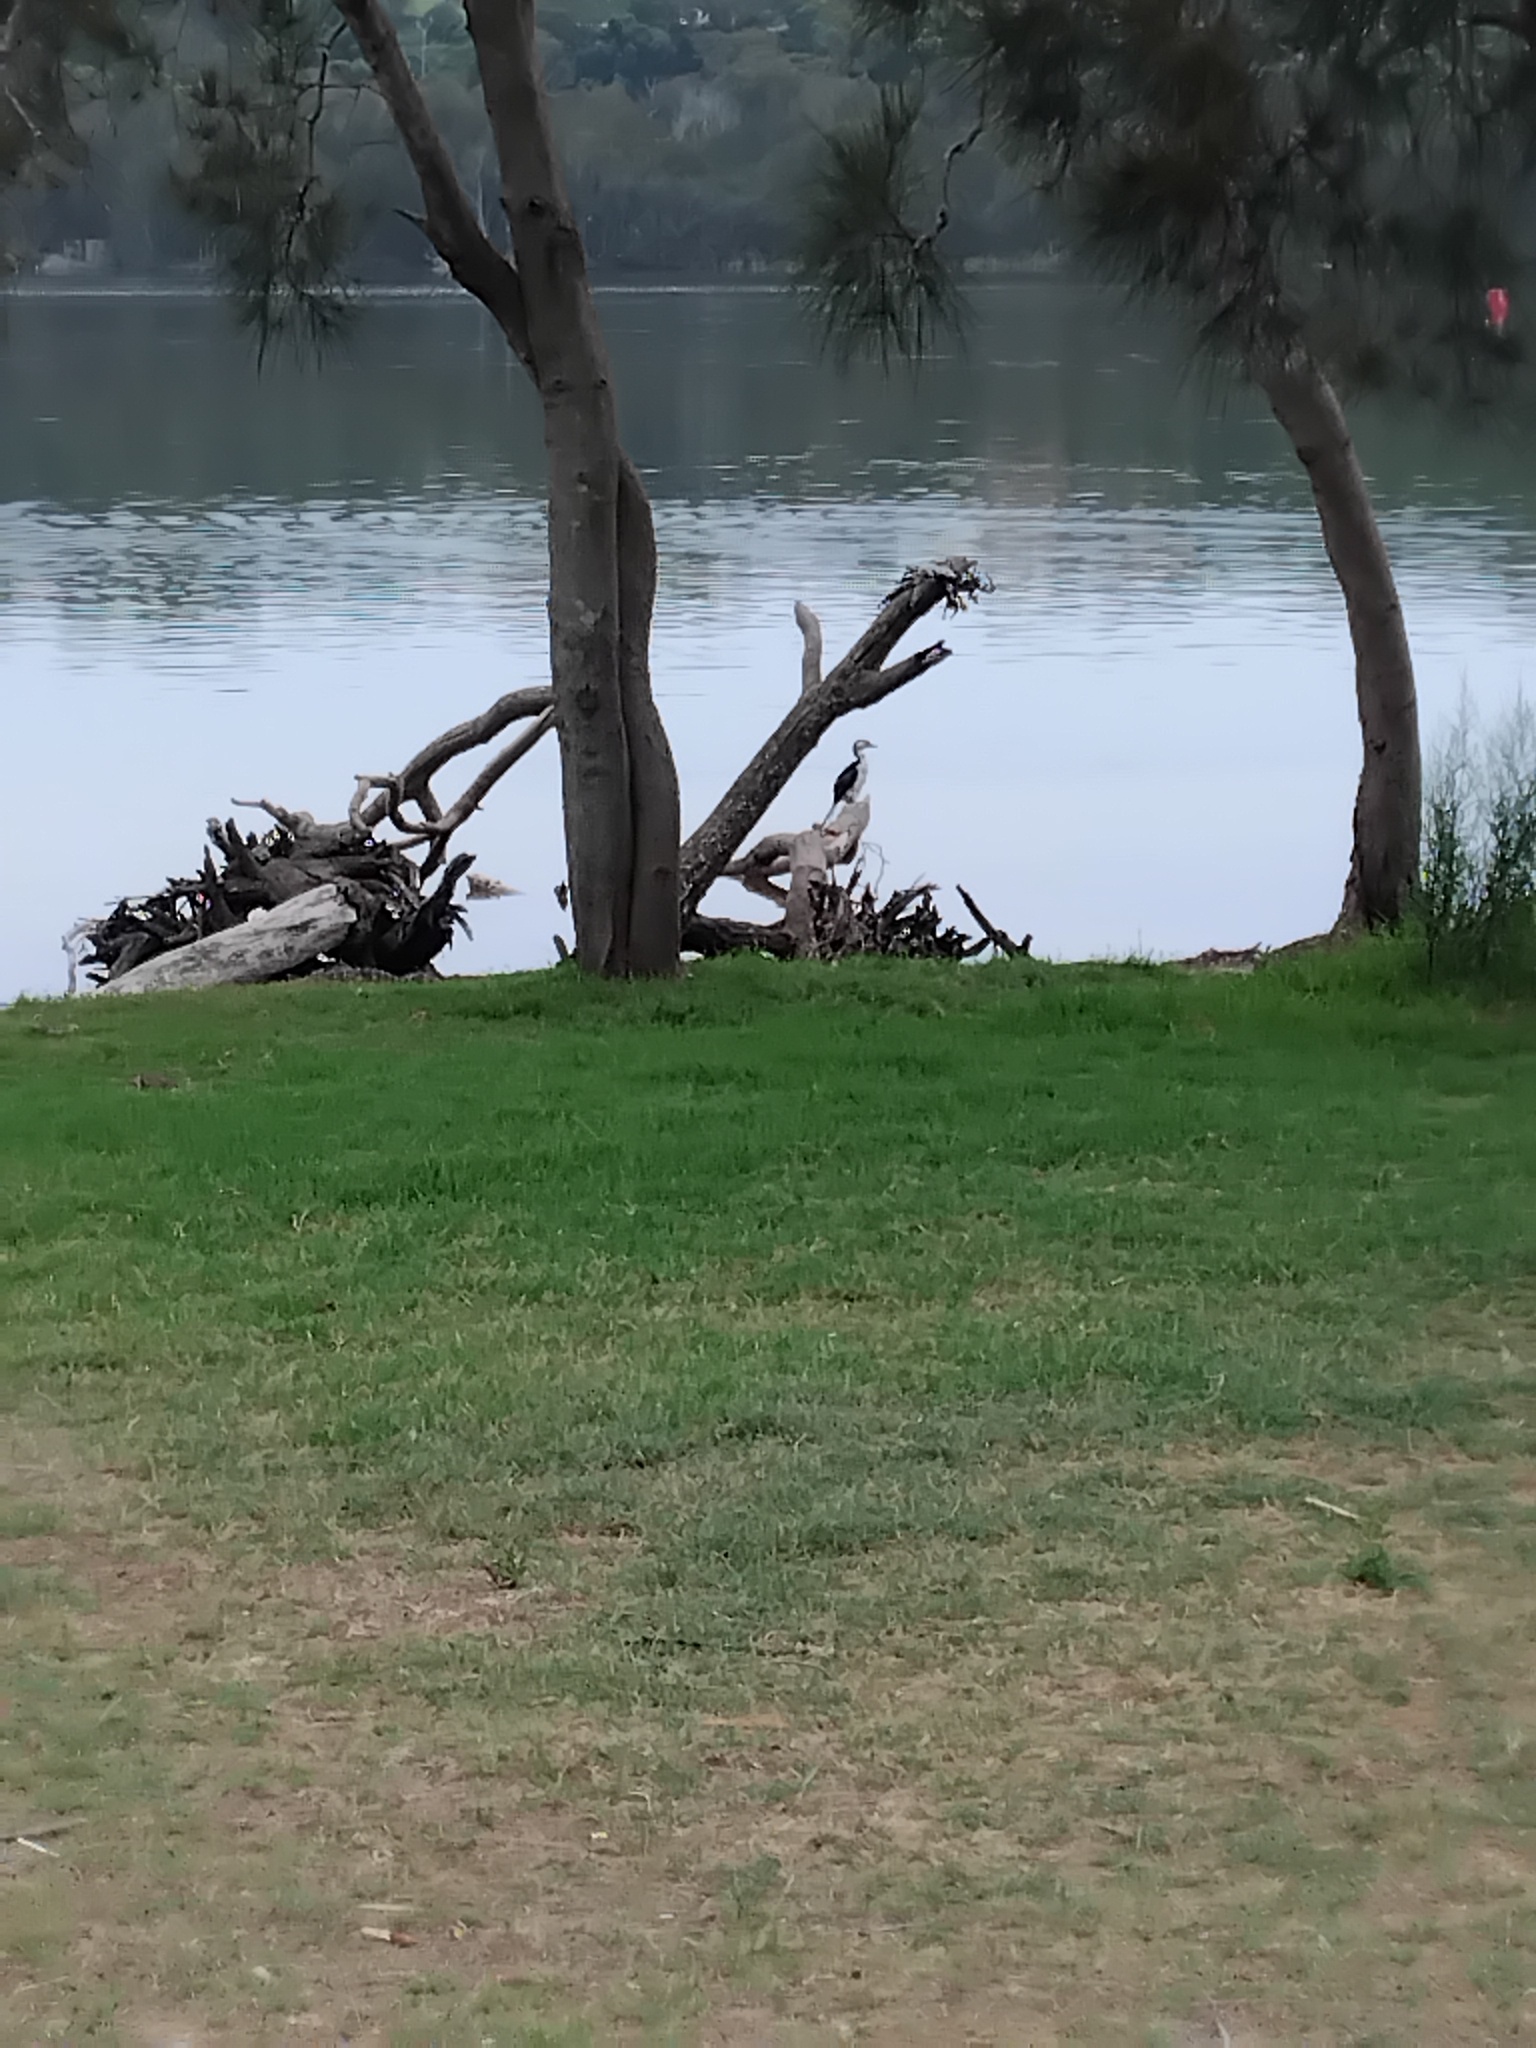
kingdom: Animalia
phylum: Chordata
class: Aves
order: Suliformes
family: Phalacrocoracidae
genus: Microcarbo
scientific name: Microcarbo melanoleucos
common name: Little pied cormorant
